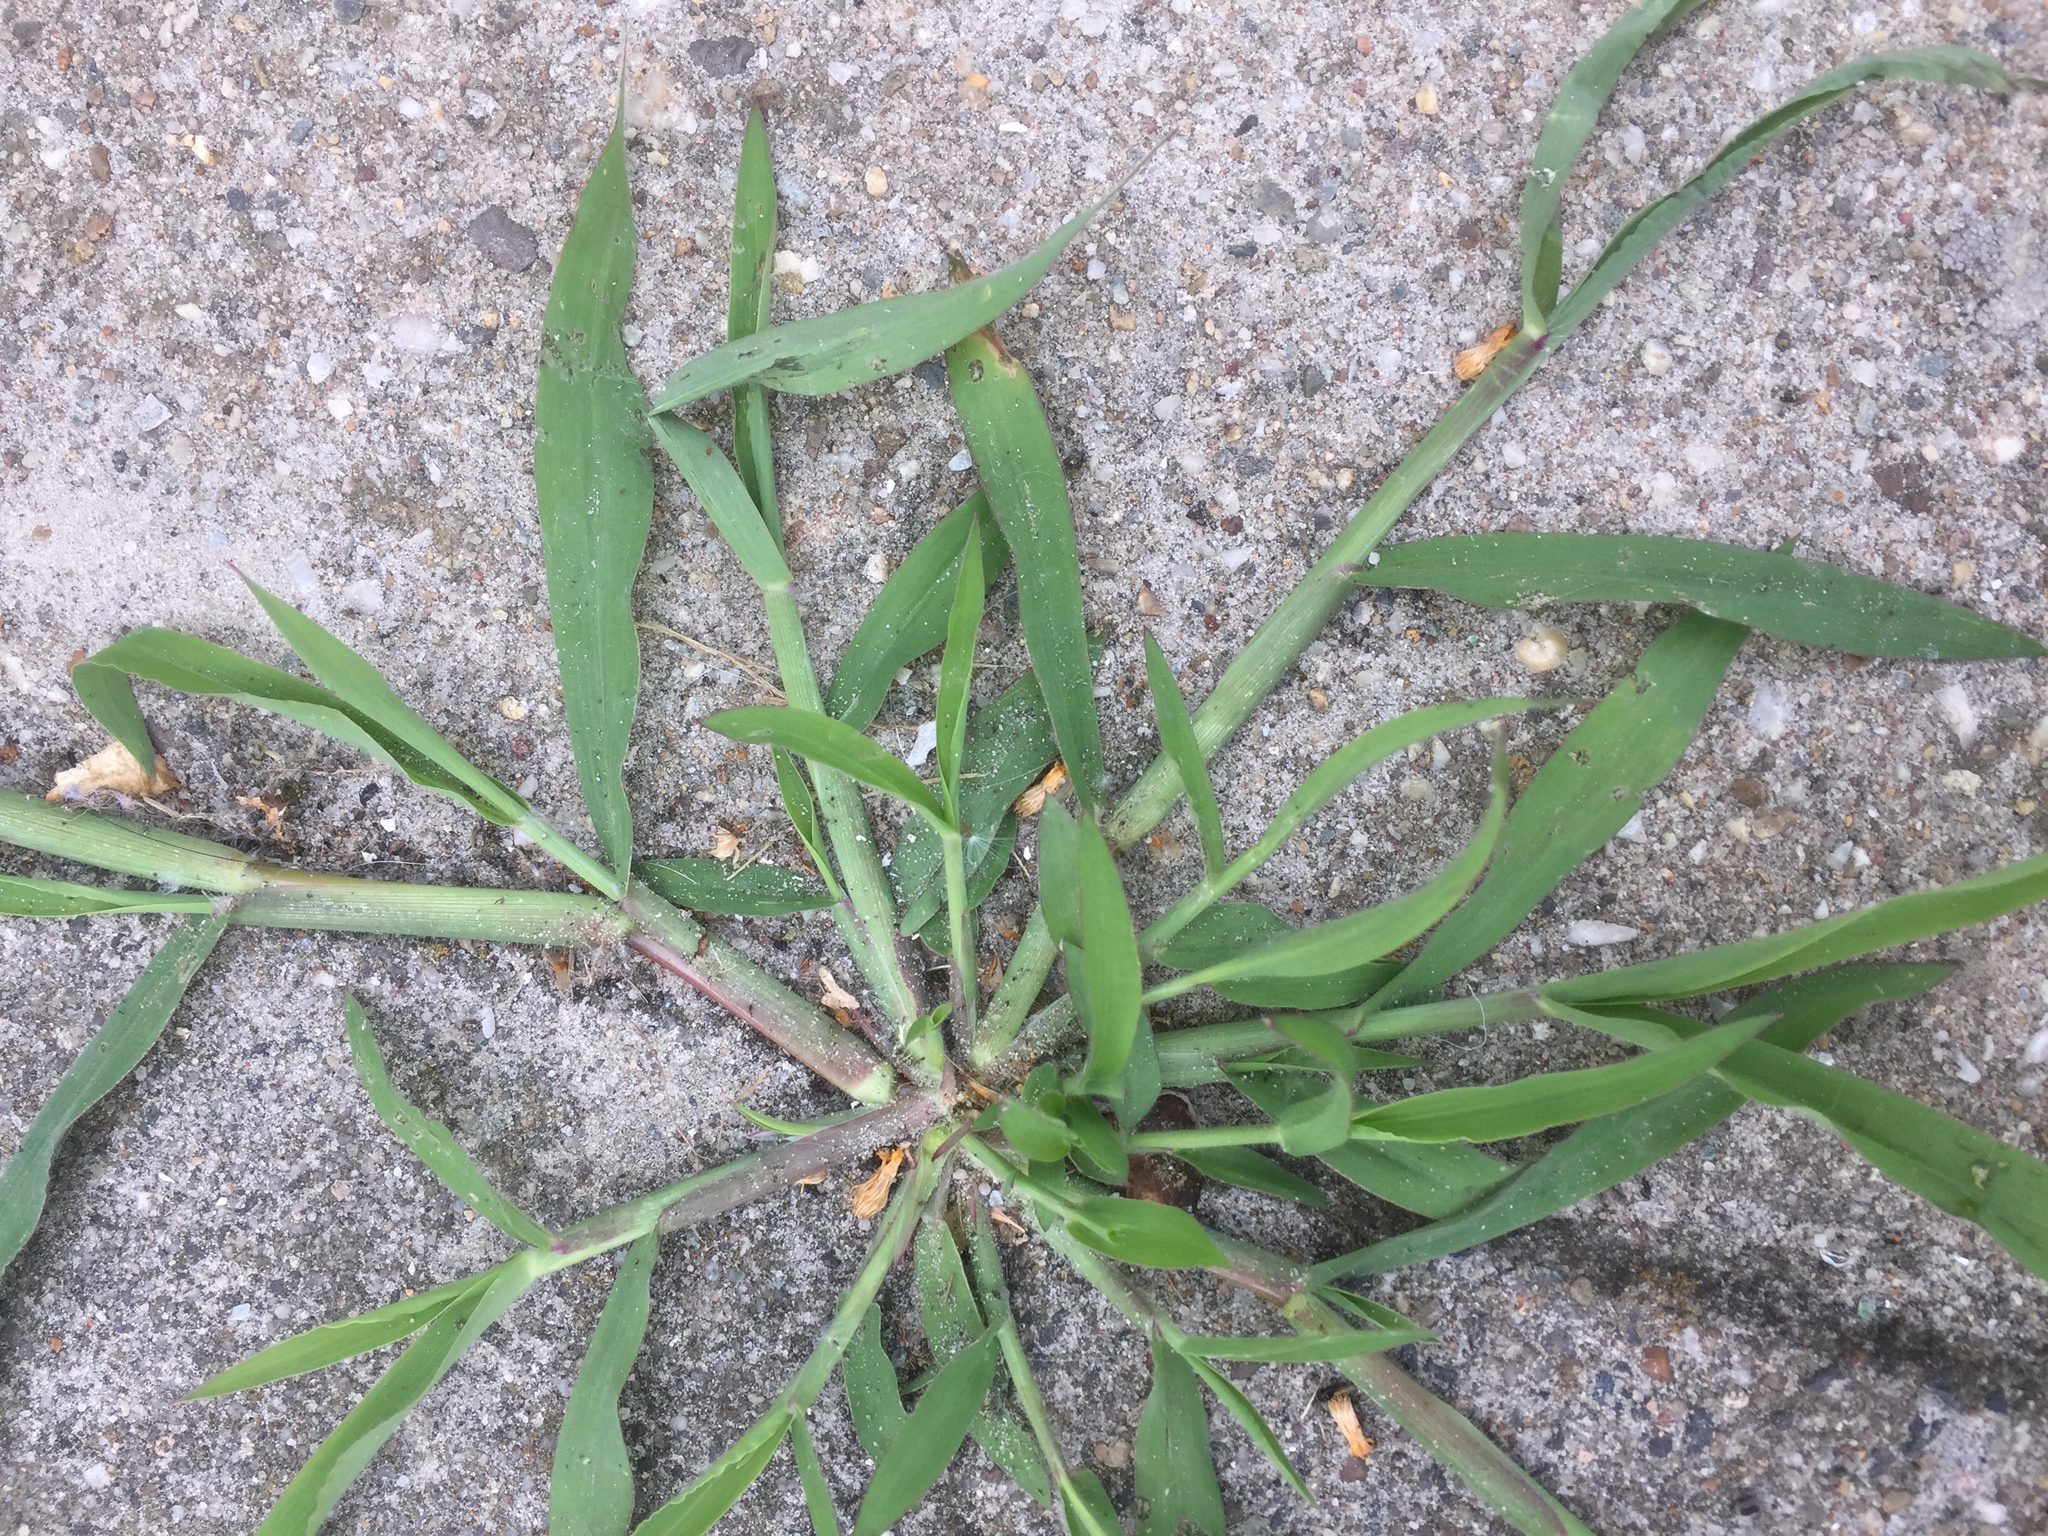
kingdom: Plantae
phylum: Tracheophyta
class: Liliopsida
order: Poales
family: Poaceae
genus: Digitaria
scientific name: Digitaria sanguinalis
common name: Hairy crabgrass
